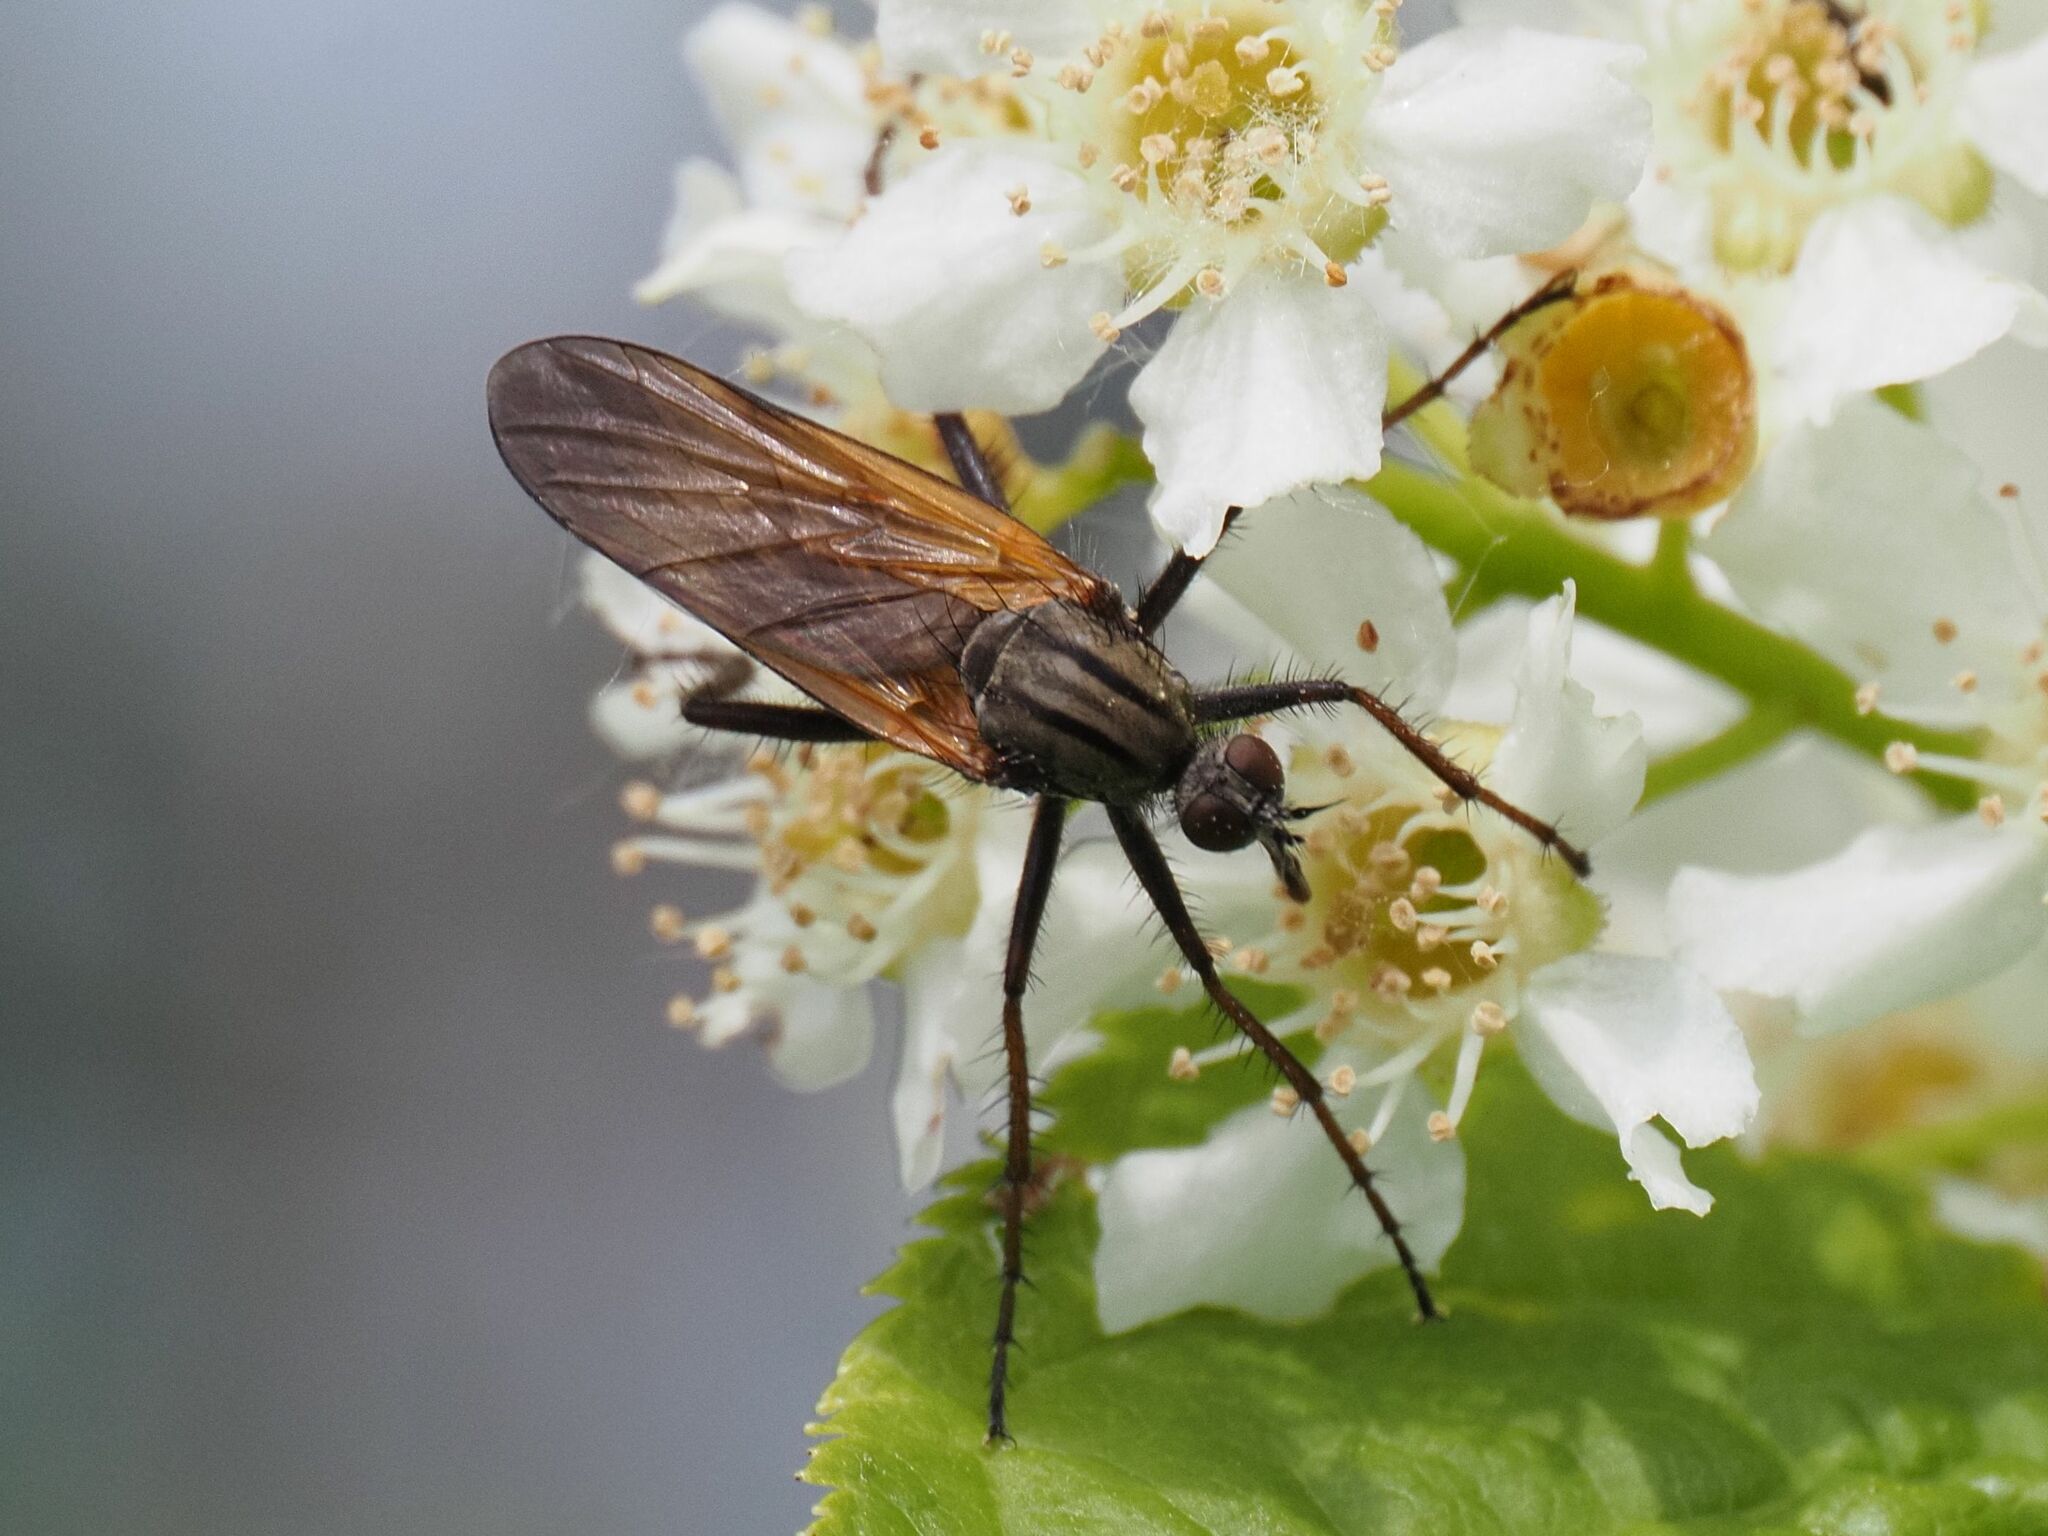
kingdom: Animalia
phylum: Arthropoda
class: Insecta
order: Diptera
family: Empididae
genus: Empis
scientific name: Empis tessellata
